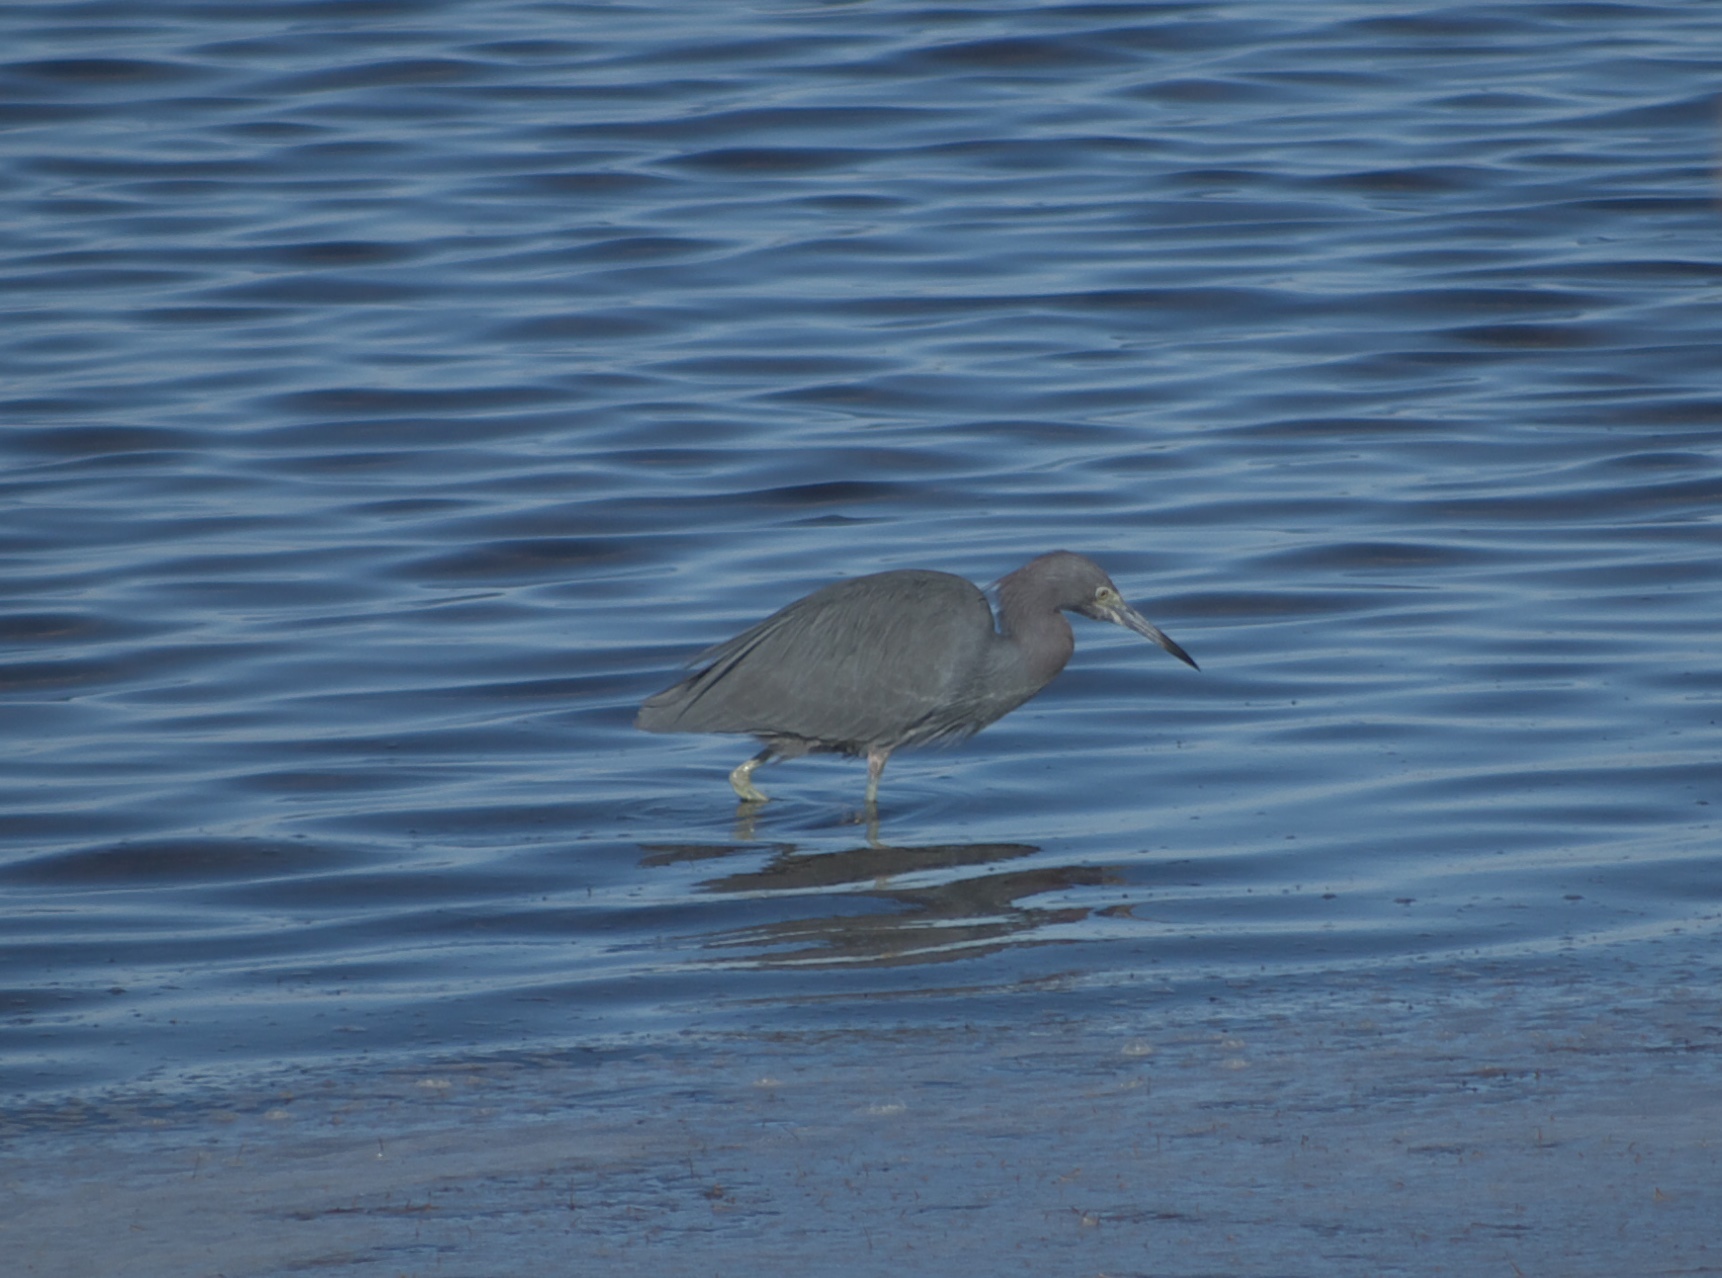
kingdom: Animalia
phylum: Chordata
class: Aves
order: Pelecaniformes
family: Ardeidae
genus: Egretta
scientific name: Egretta caerulea
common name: Little blue heron
